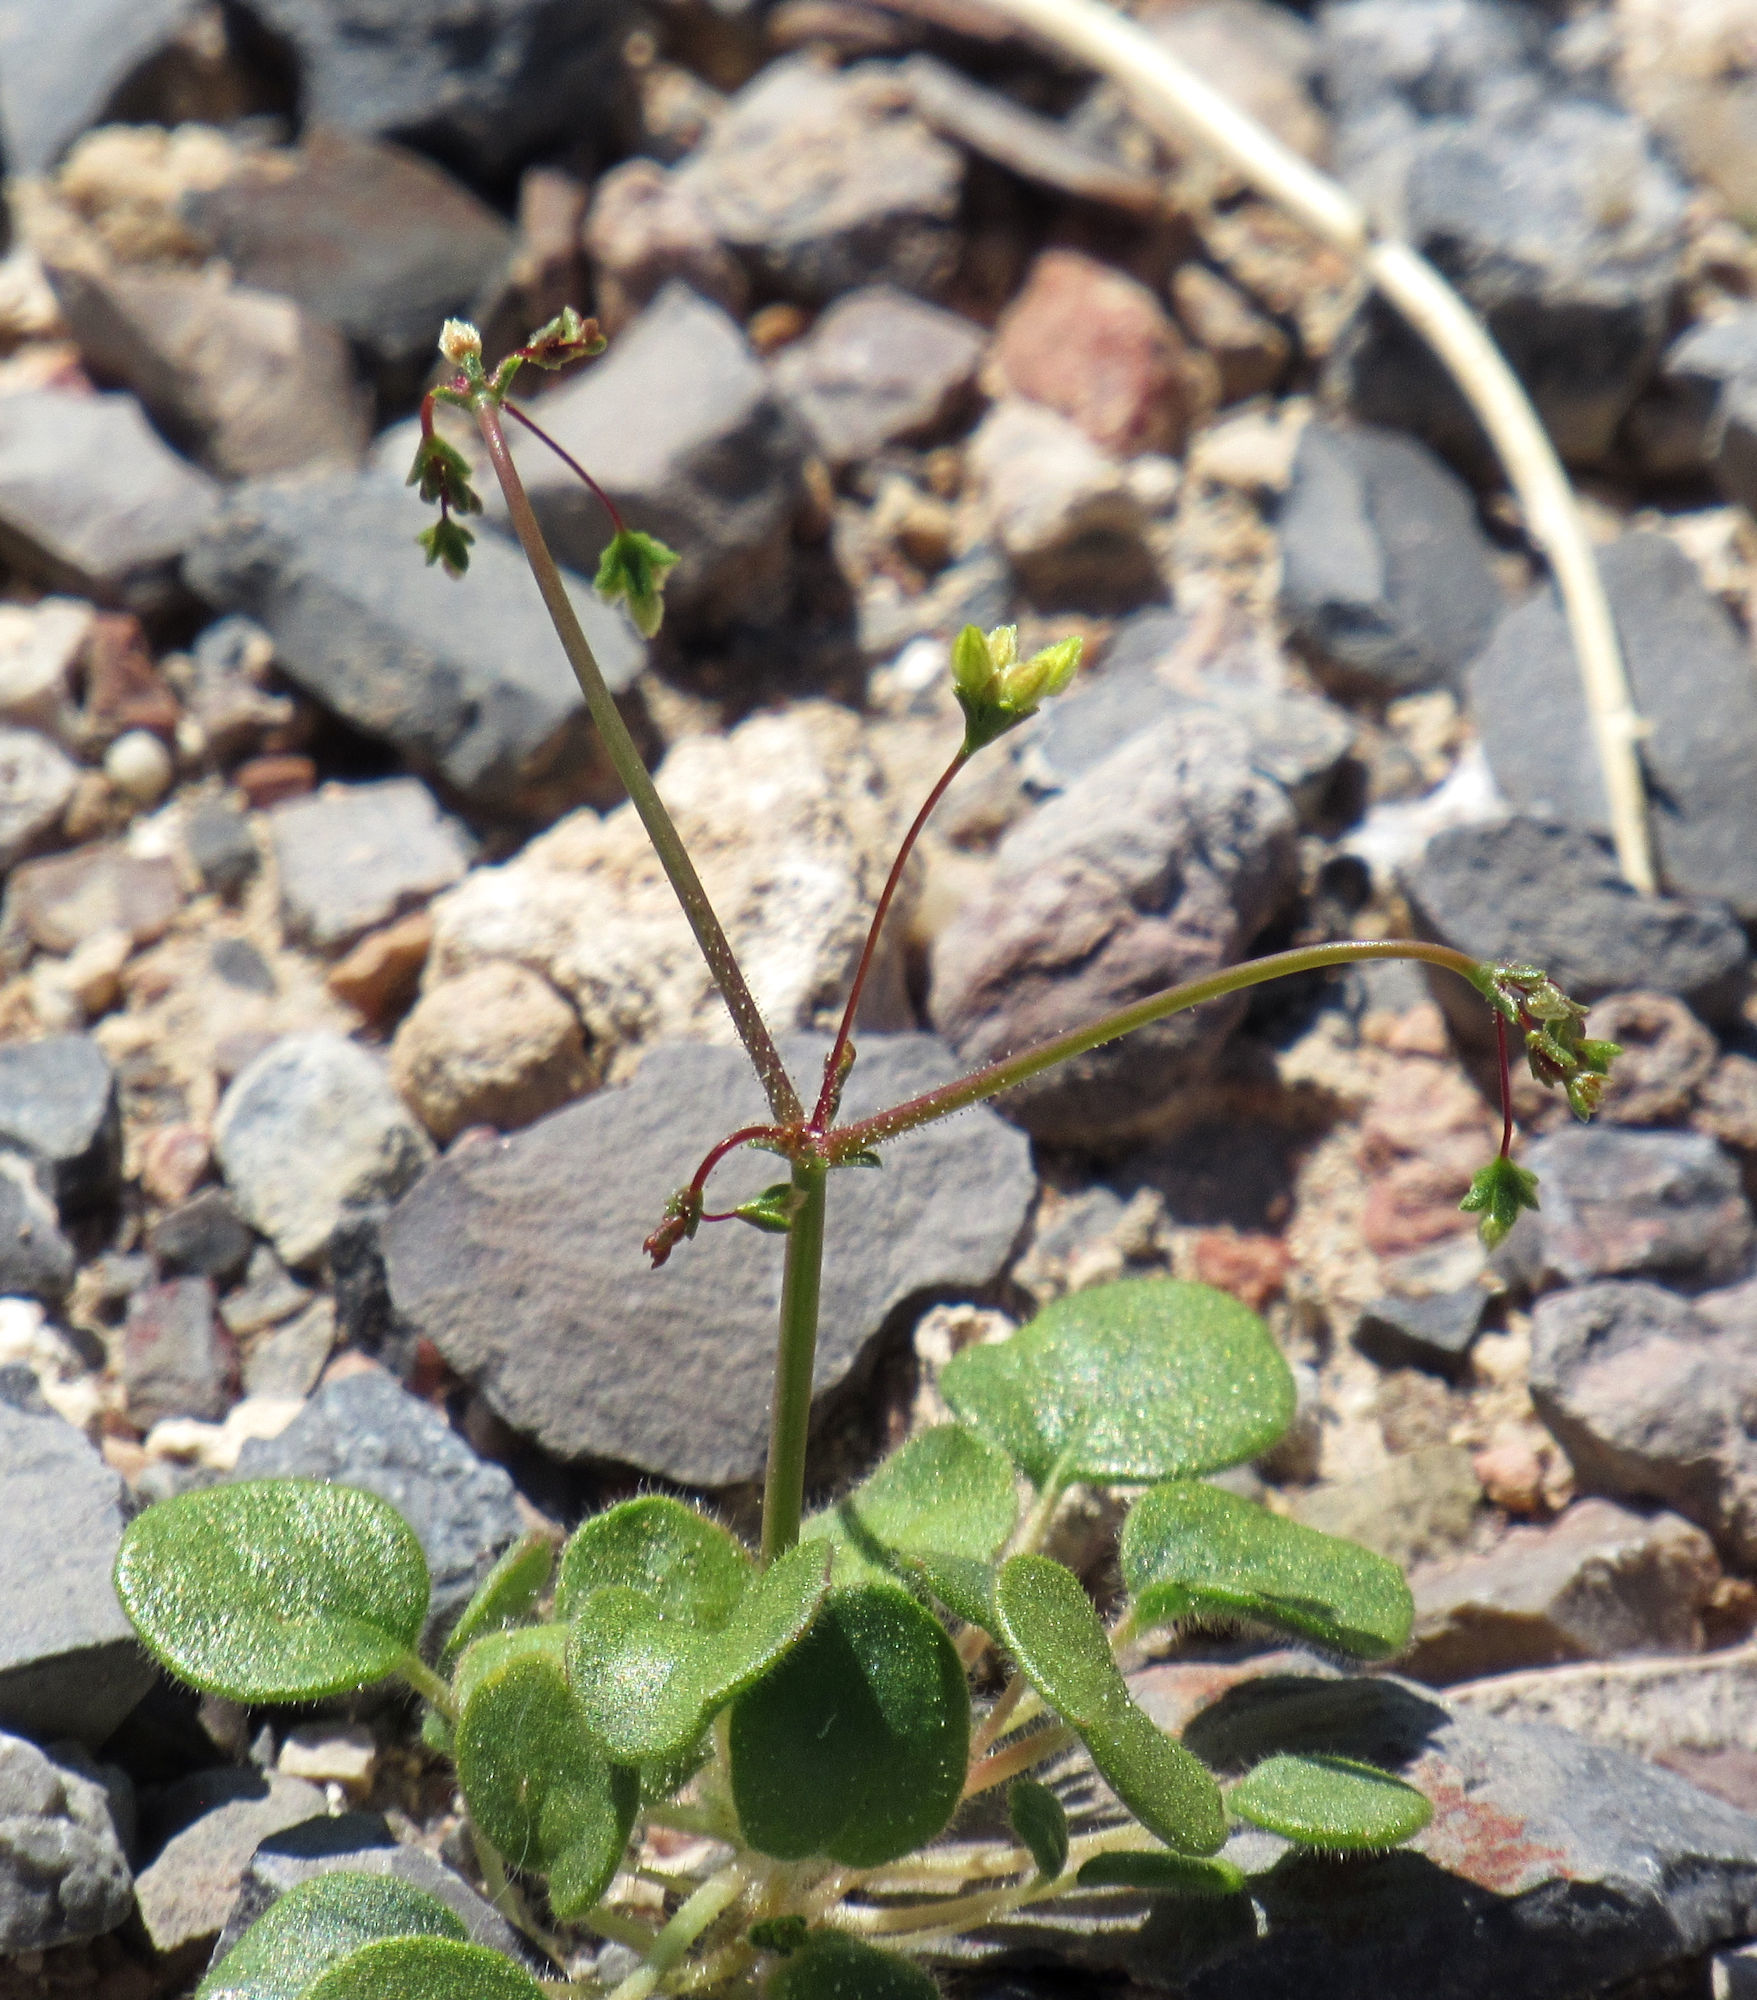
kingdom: Plantae
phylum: Tracheophyta
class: Magnoliopsida
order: Caryophyllales
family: Polygonaceae
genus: Eriogonum
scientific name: Eriogonum contiguum
